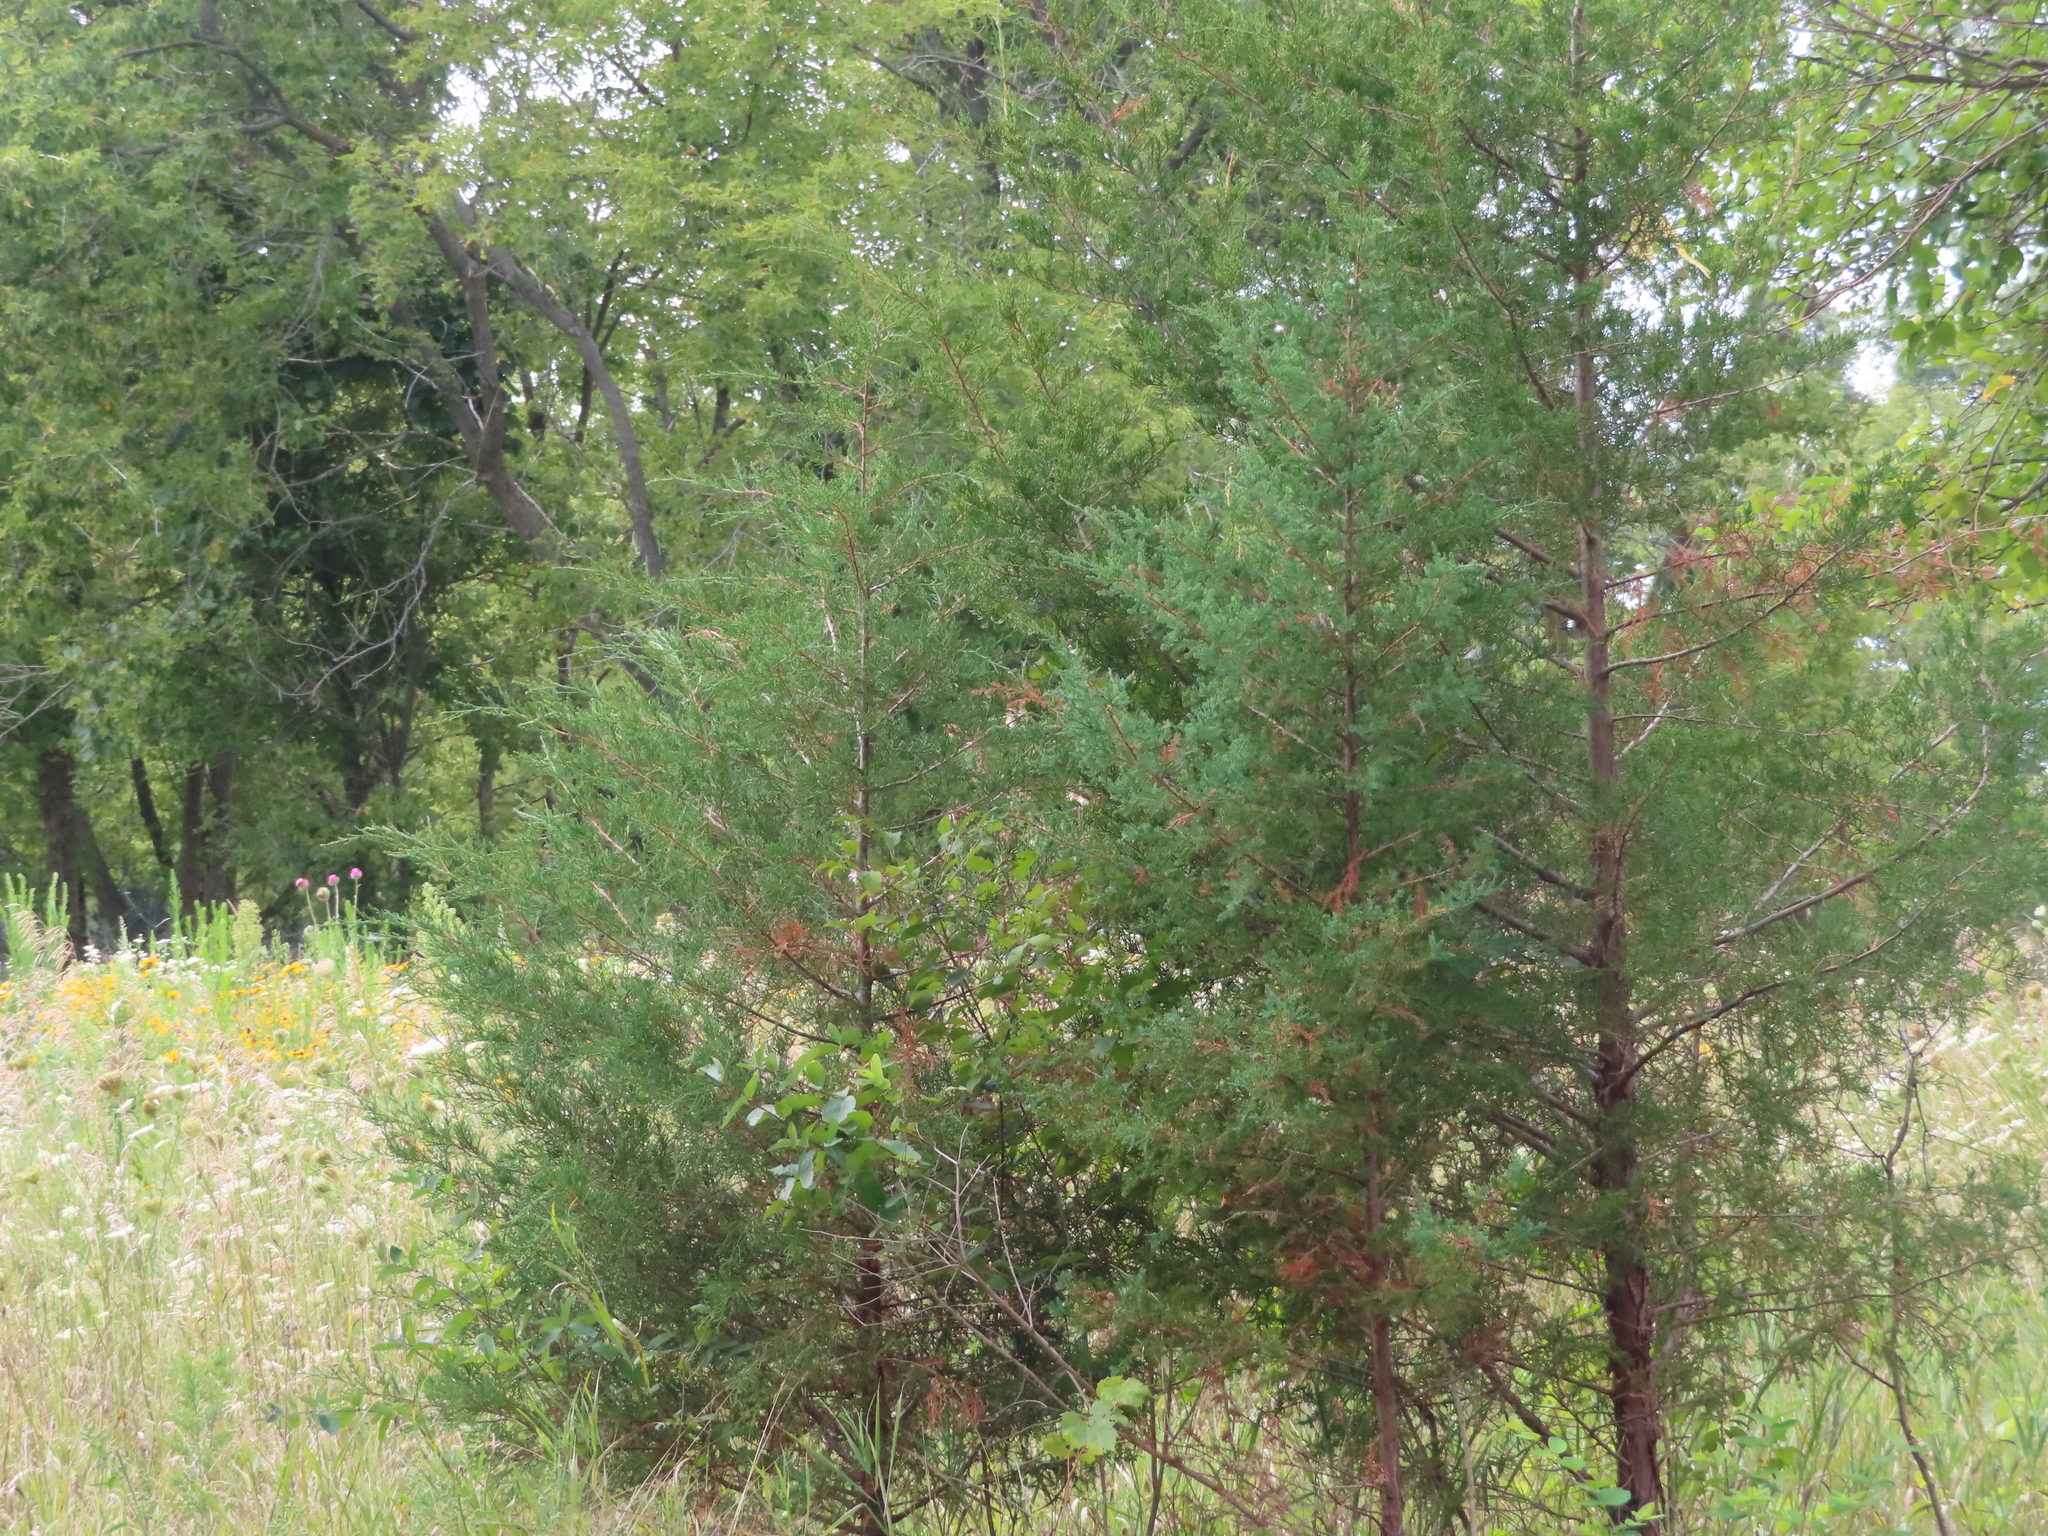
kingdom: Plantae
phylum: Tracheophyta
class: Pinopsida
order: Pinales
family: Cupressaceae
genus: Juniperus
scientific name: Juniperus virginiana
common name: Red juniper
